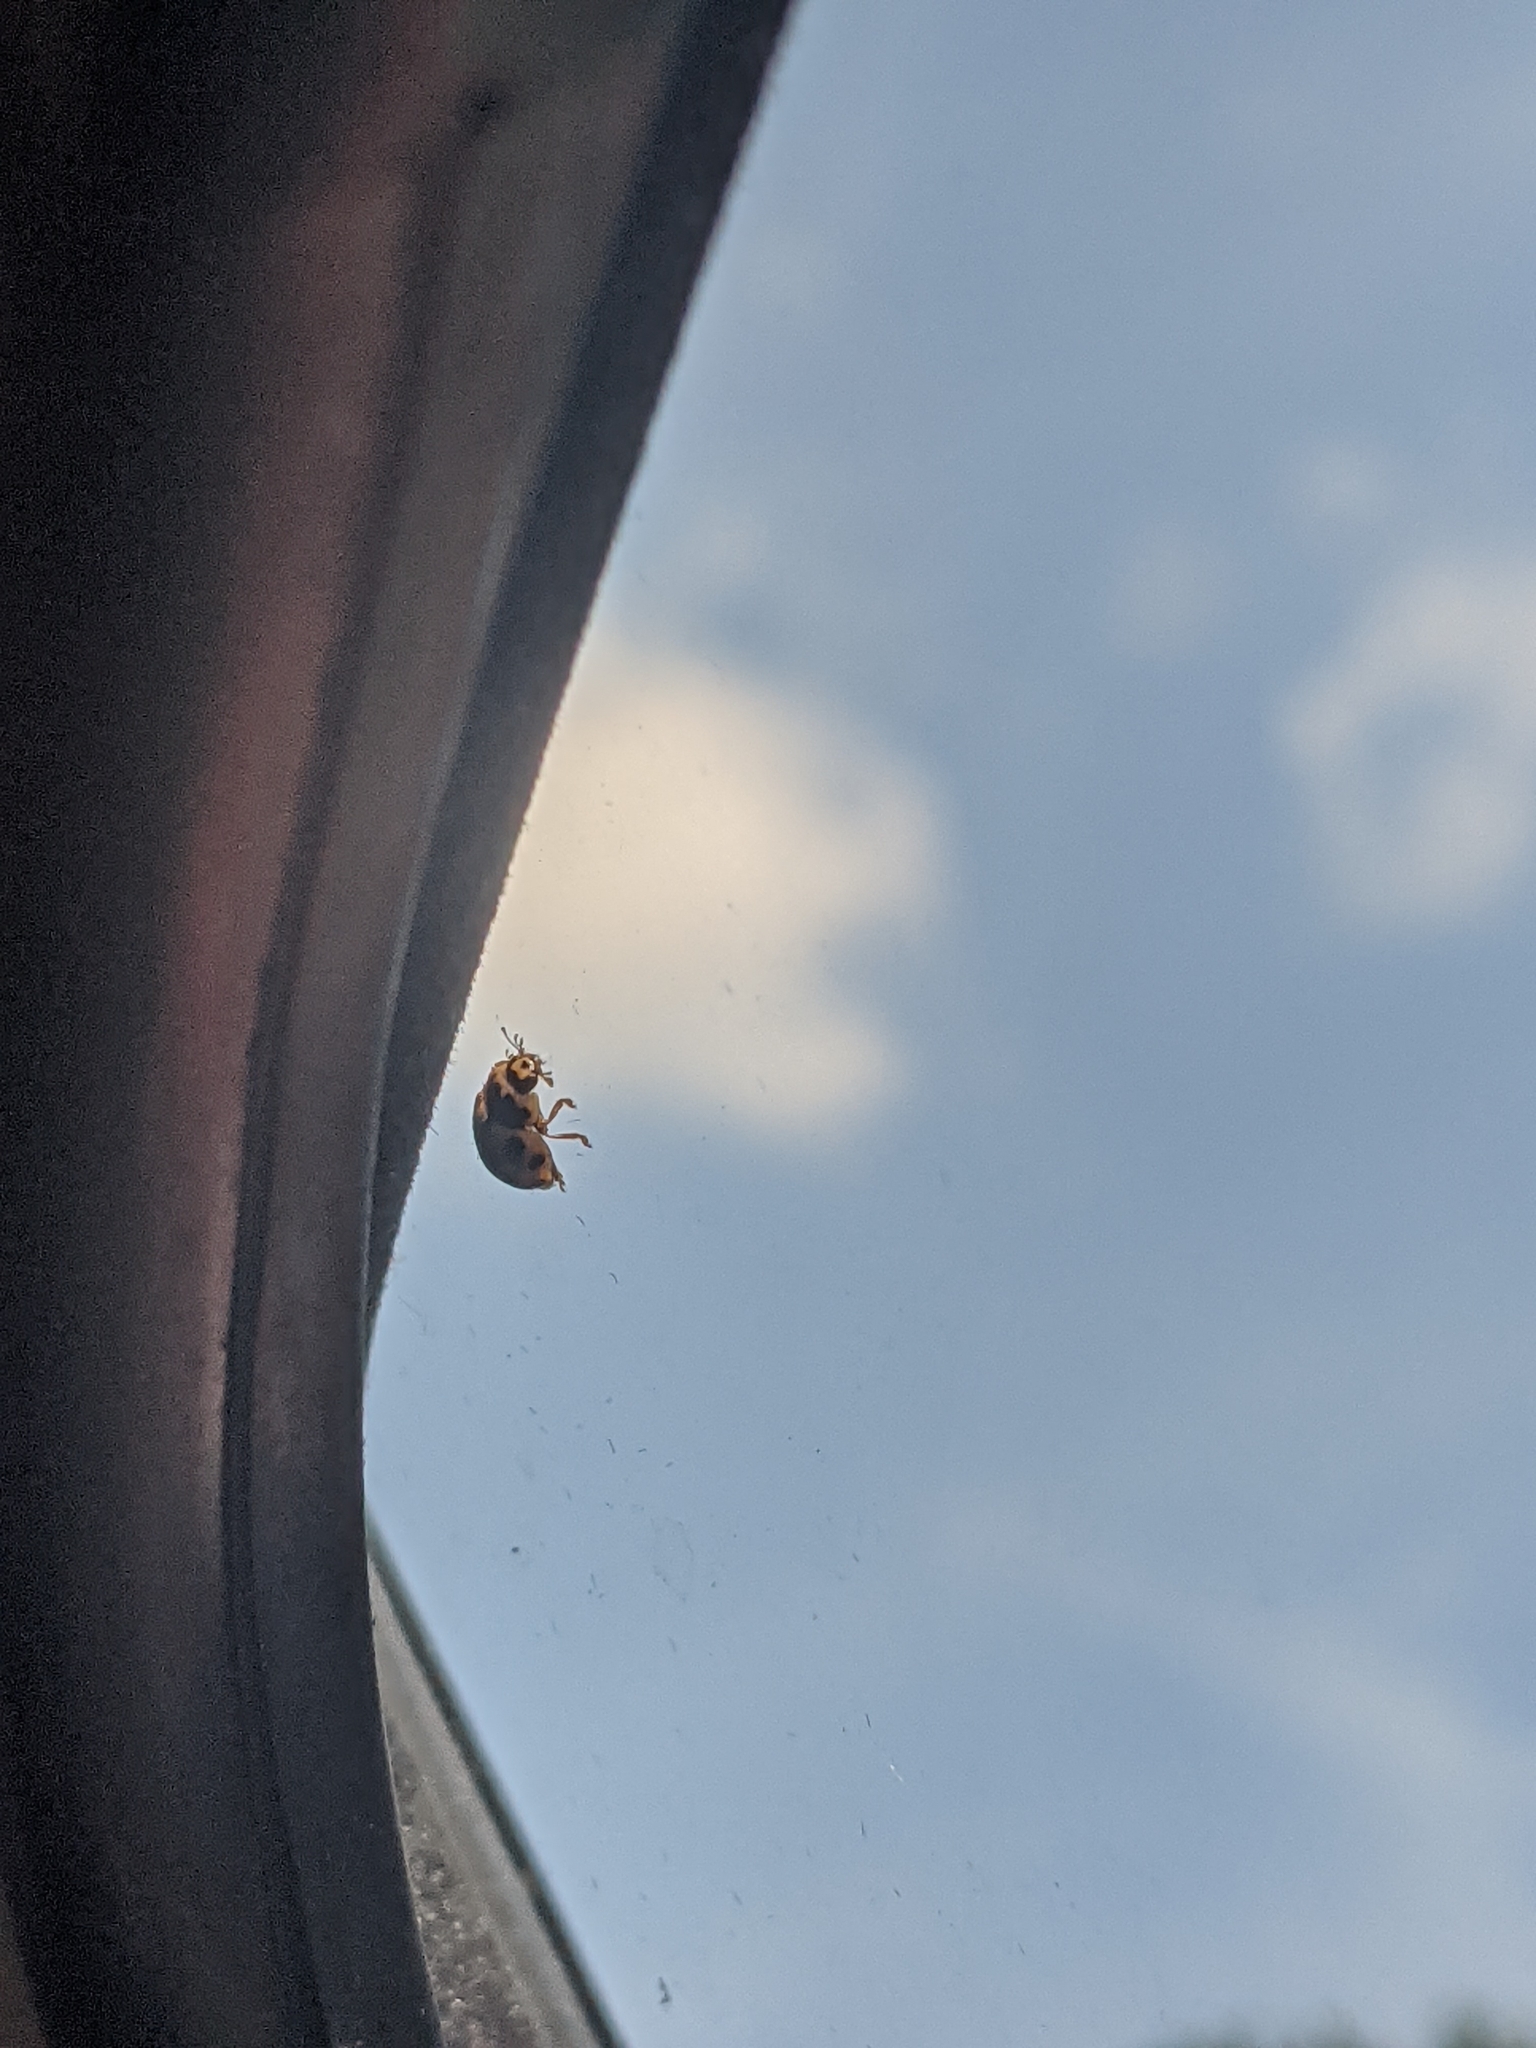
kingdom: Animalia
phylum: Arthropoda
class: Insecta
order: Coleoptera
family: Coccinellidae
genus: Propylaea
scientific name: Propylaea quatuordecimpunctata
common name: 14-spotted ladybird beetle
